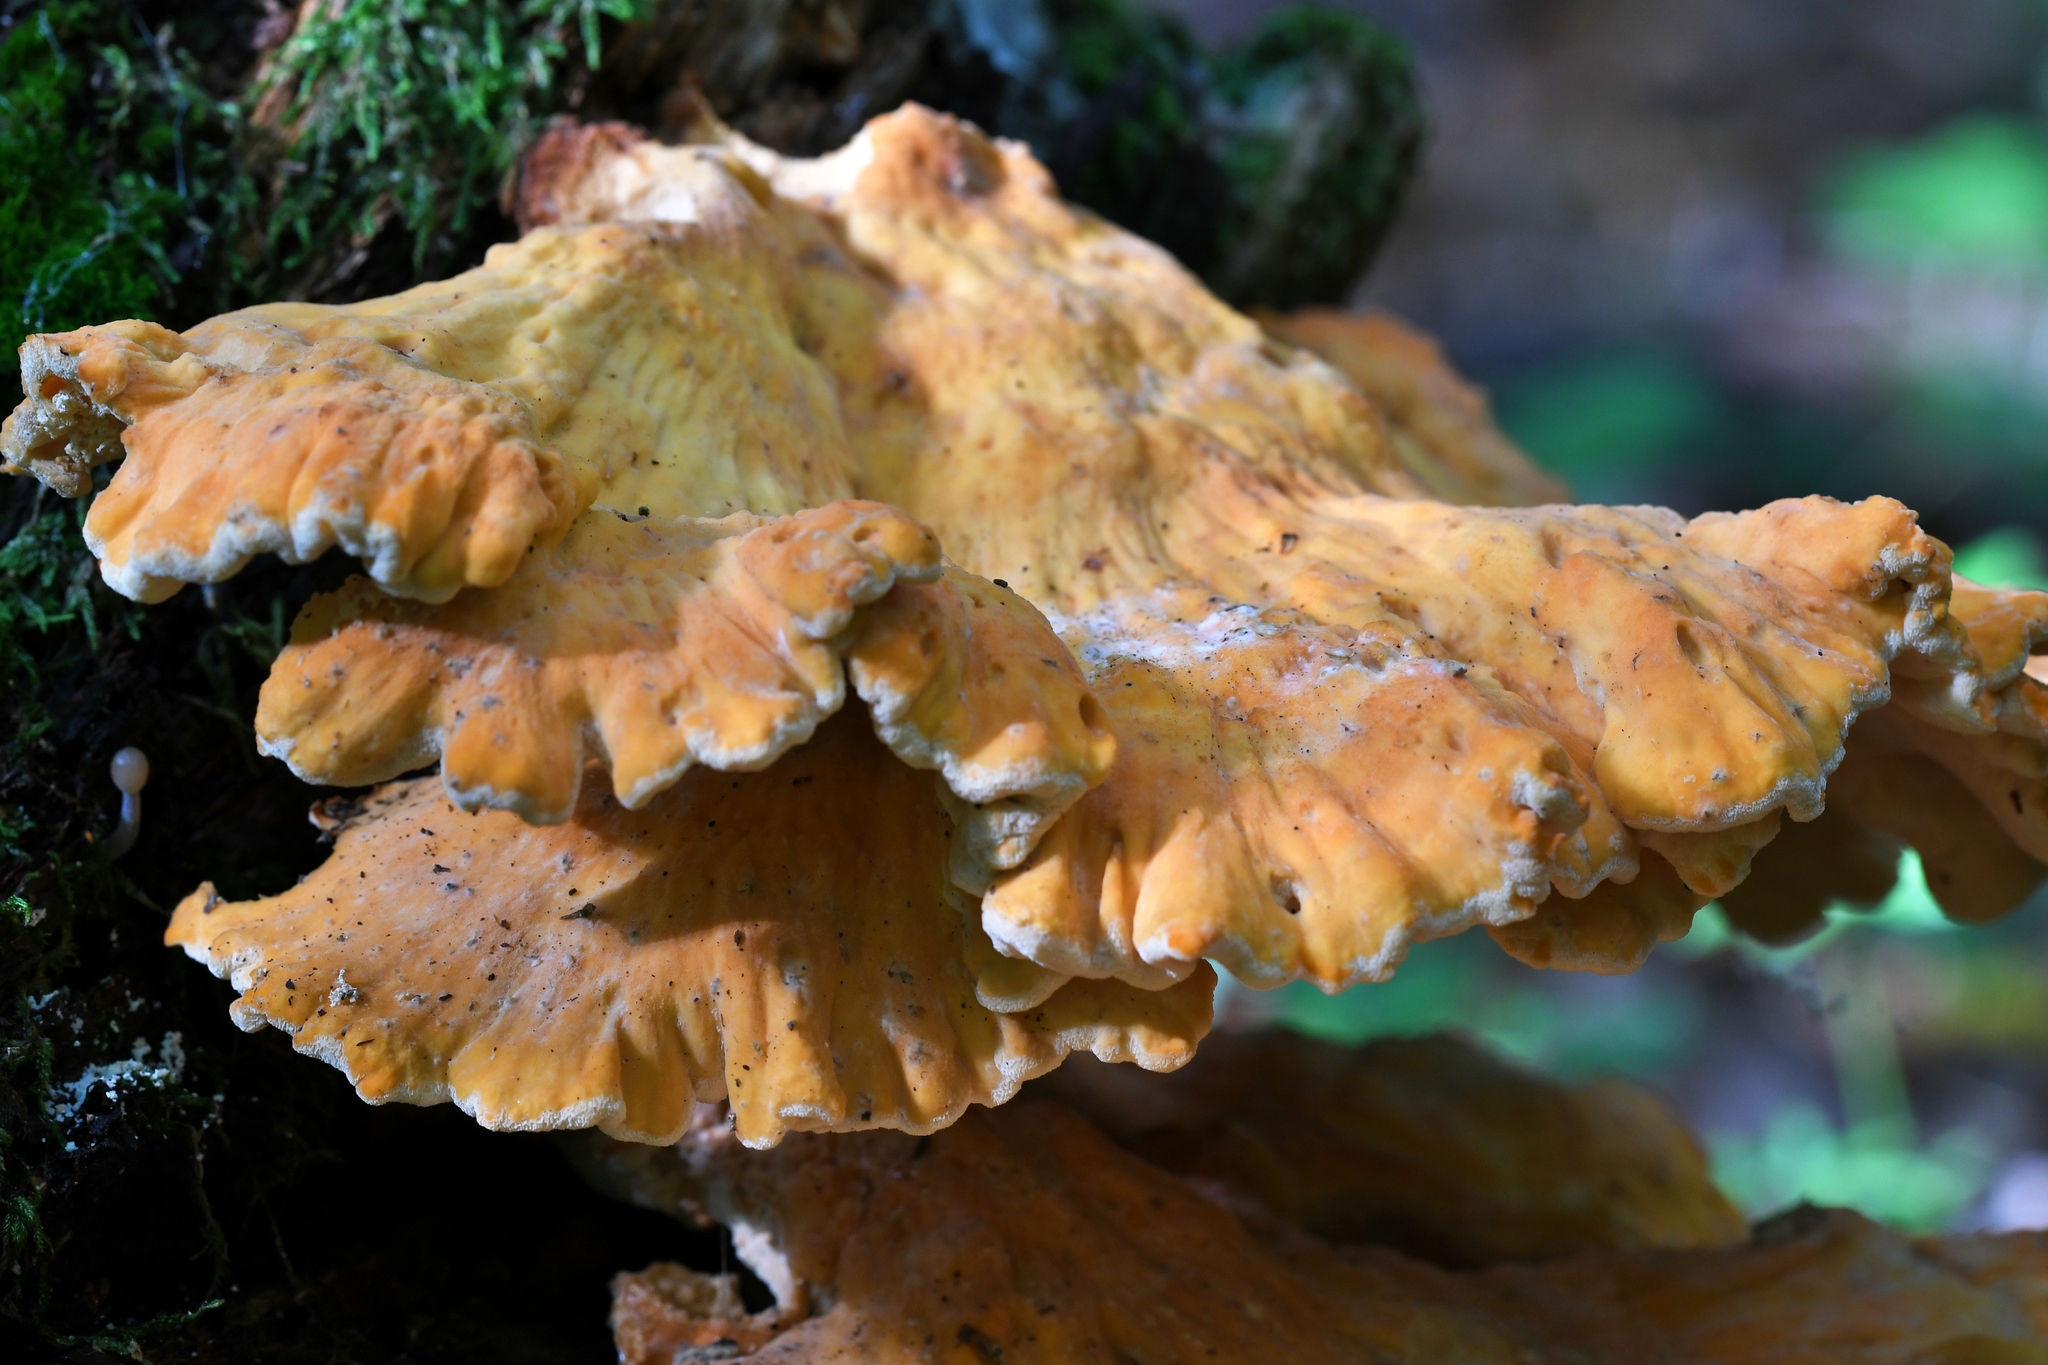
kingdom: Fungi
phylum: Basidiomycota
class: Agaricomycetes
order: Polyporales
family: Laetiporaceae
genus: Laetiporus
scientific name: Laetiporus sulphureus
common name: Chicken of the woods
